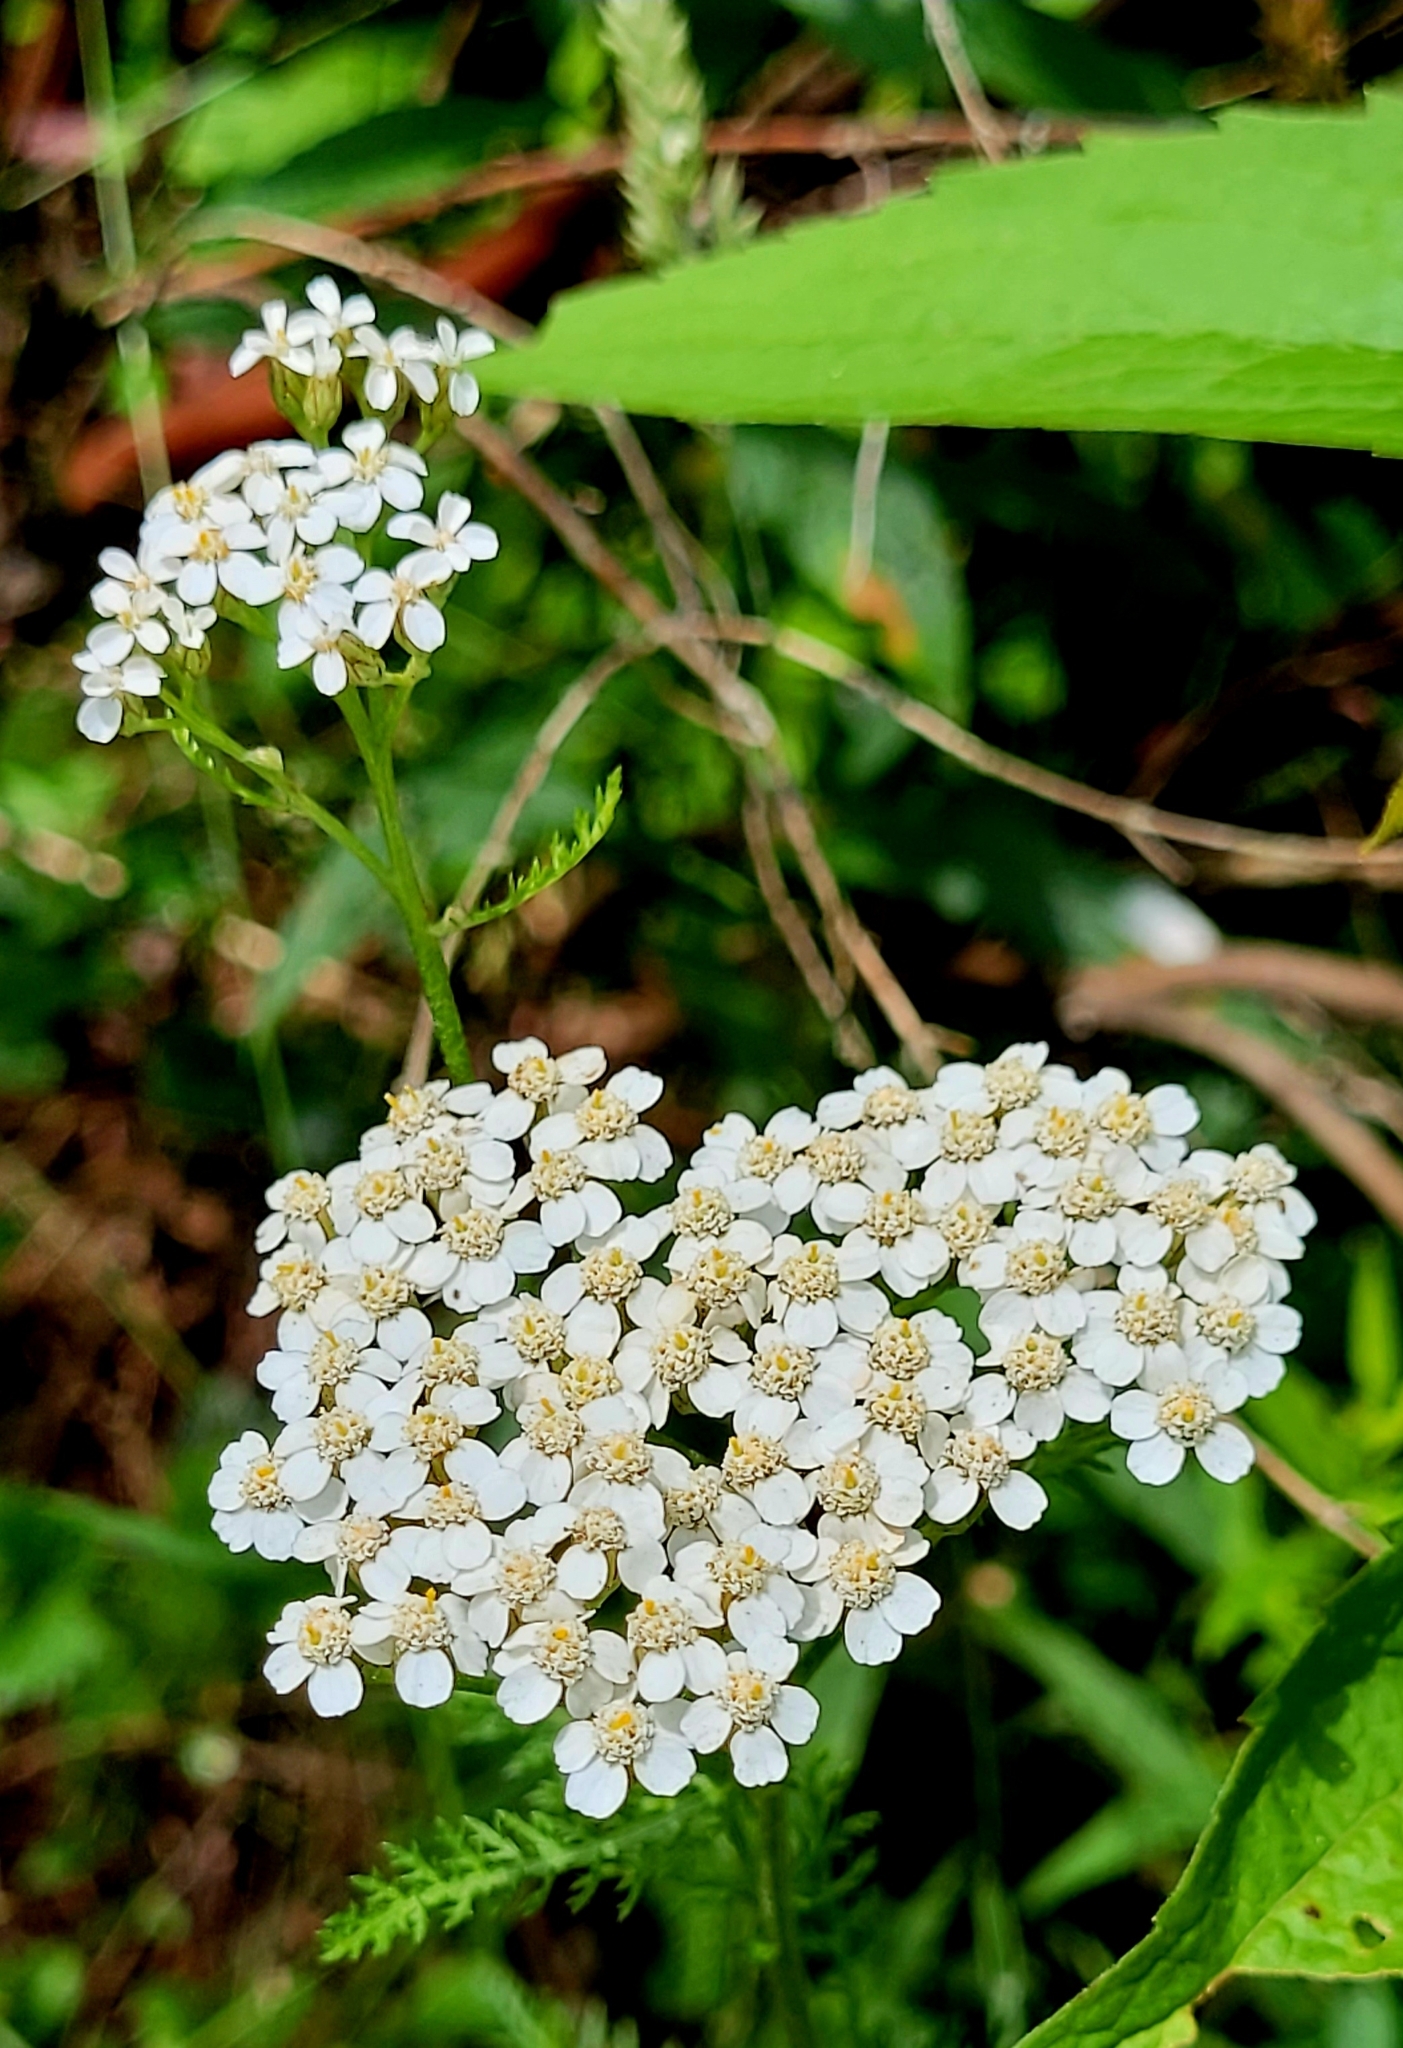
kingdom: Plantae
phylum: Tracheophyta
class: Magnoliopsida
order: Asterales
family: Asteraceae
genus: Achillea
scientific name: Achillea millefolium
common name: Yarrow
